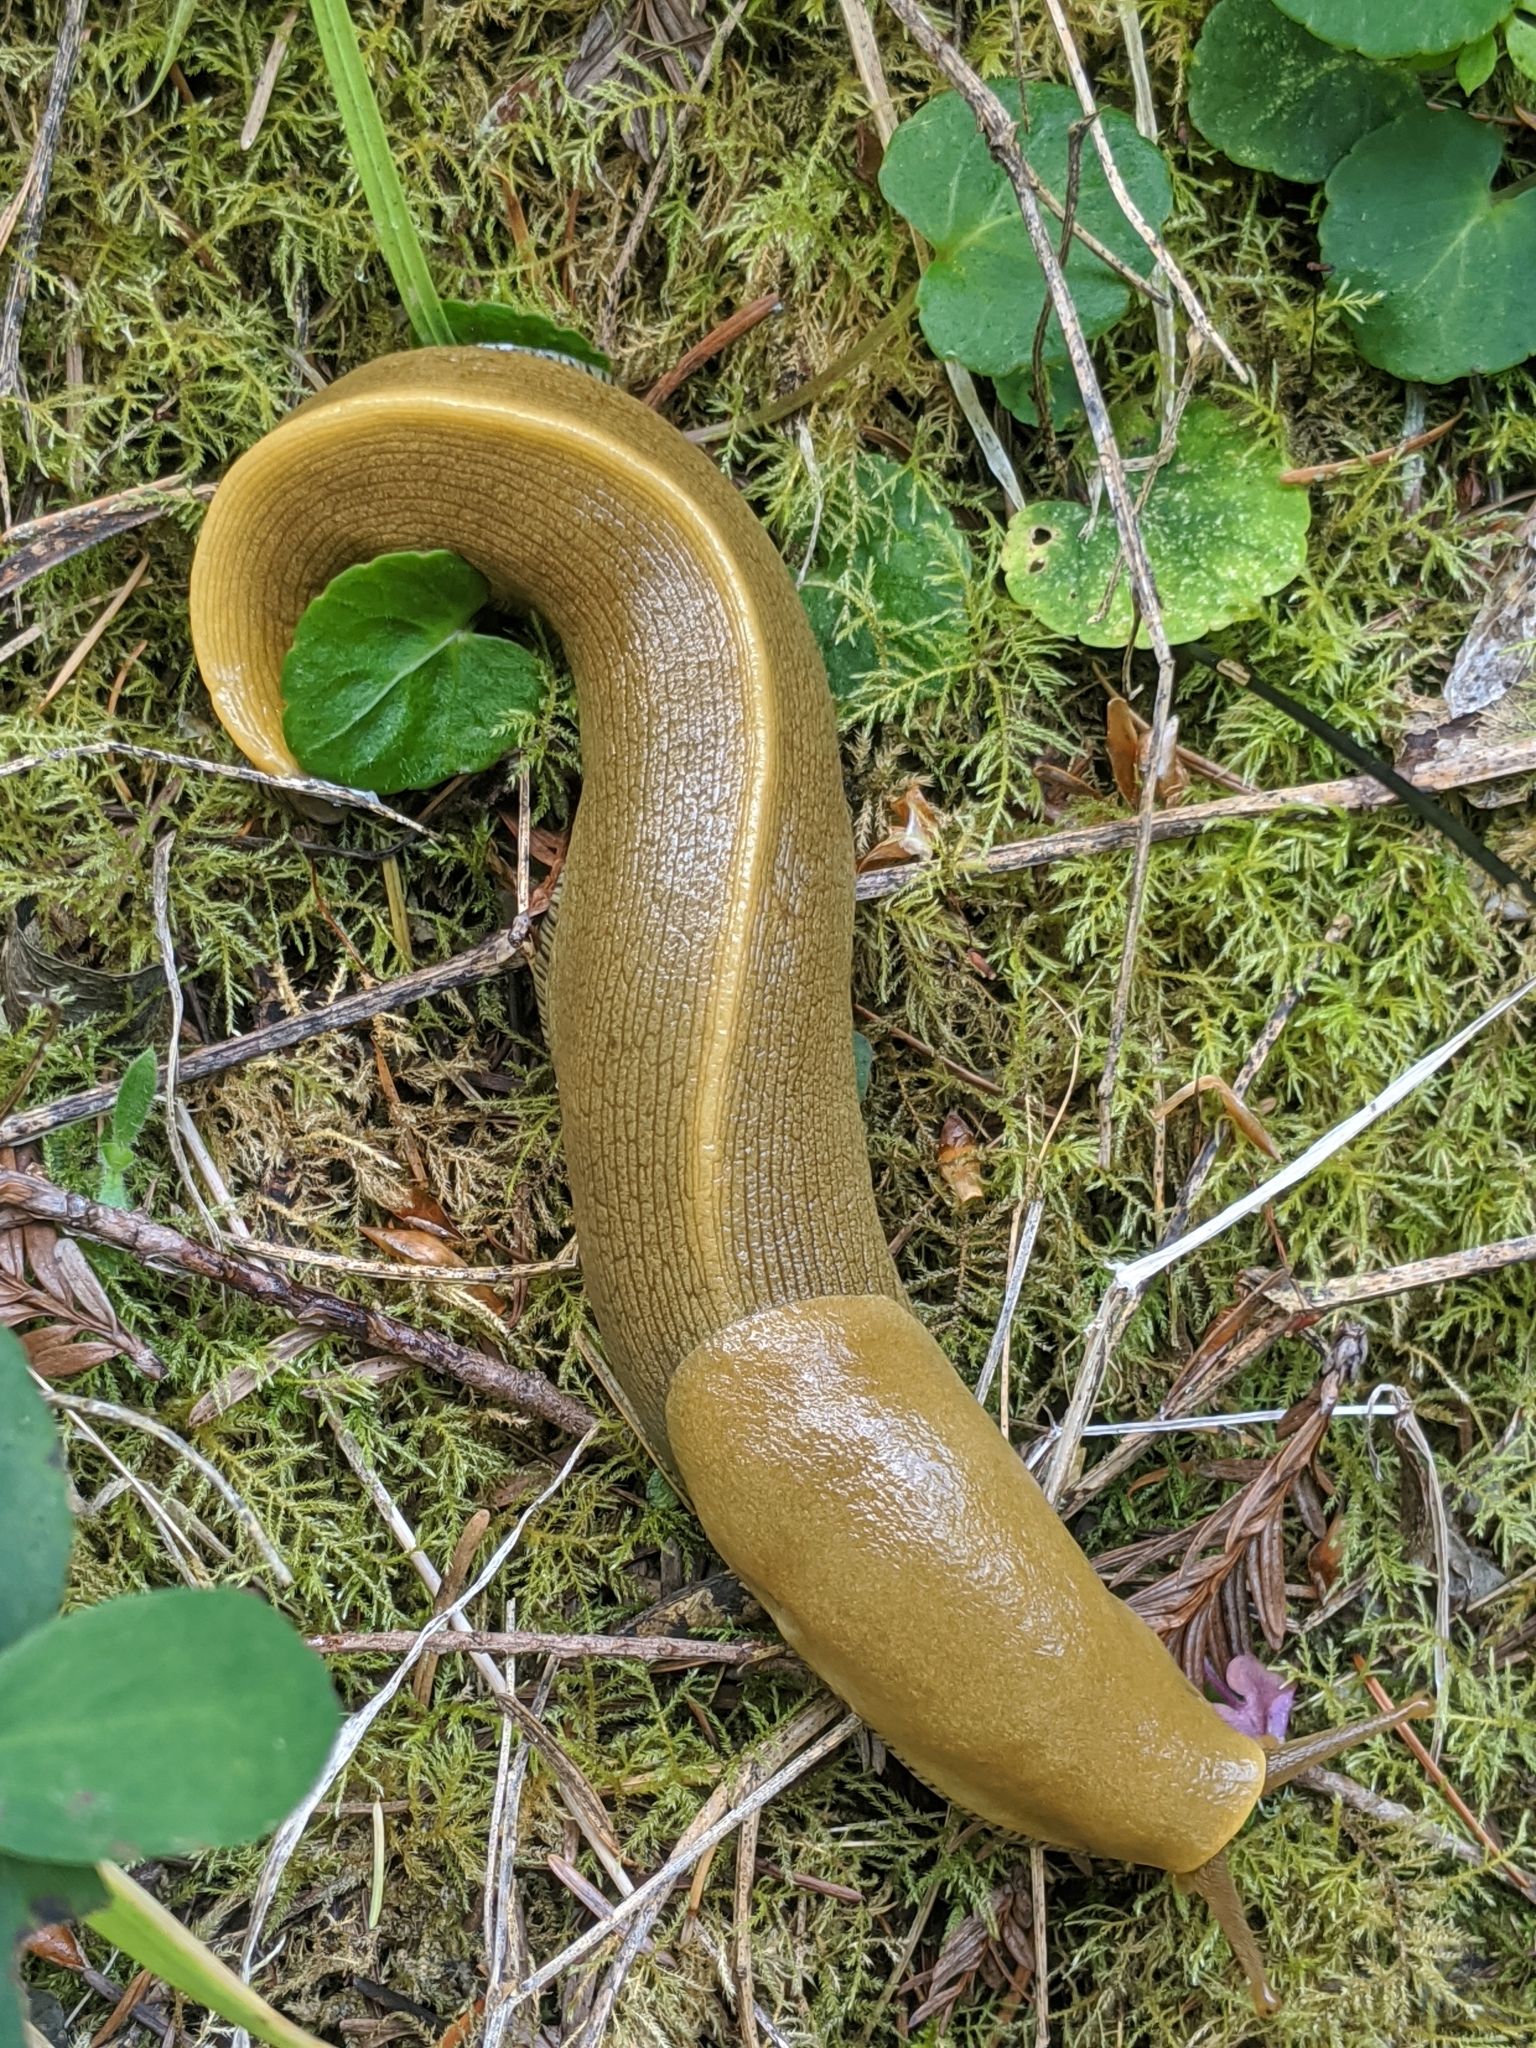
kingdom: Animalia
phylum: Mollusca
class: Gastropoda
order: Stylommatophora
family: Ariolimacidae
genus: Ariolimax
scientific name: Ariolimax buttoni
